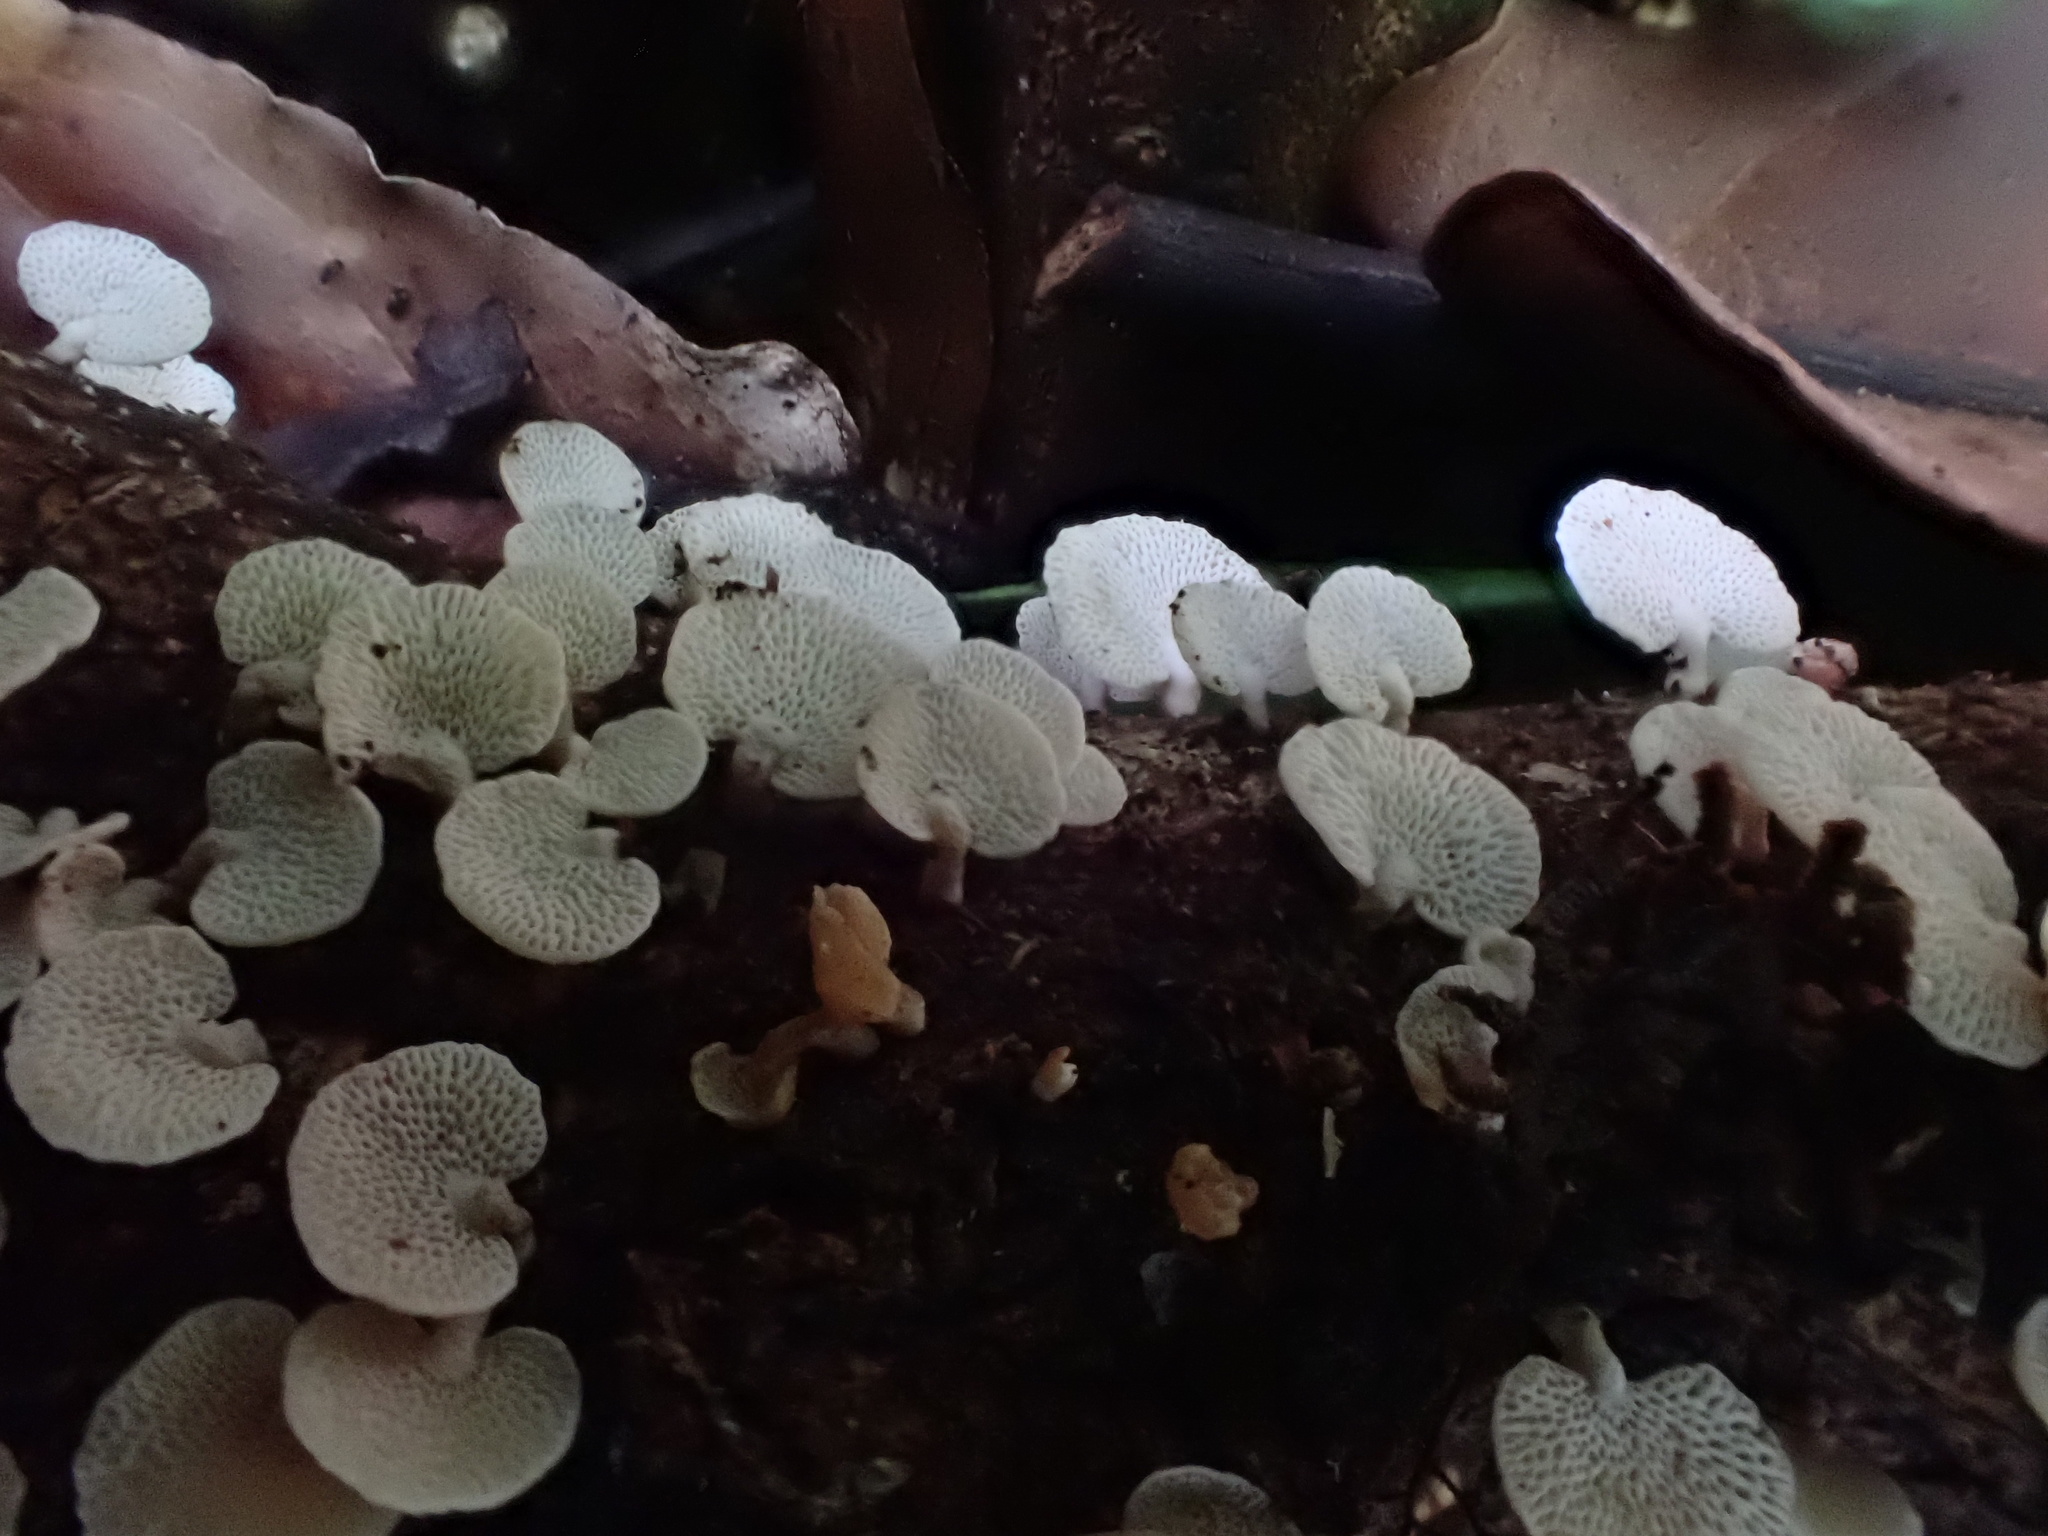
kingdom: Fungi
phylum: Basidiomycota
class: Agaricomycetes
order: Agaricales
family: Mycenaceae
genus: Panellus
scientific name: Panellus luxfilamentus
